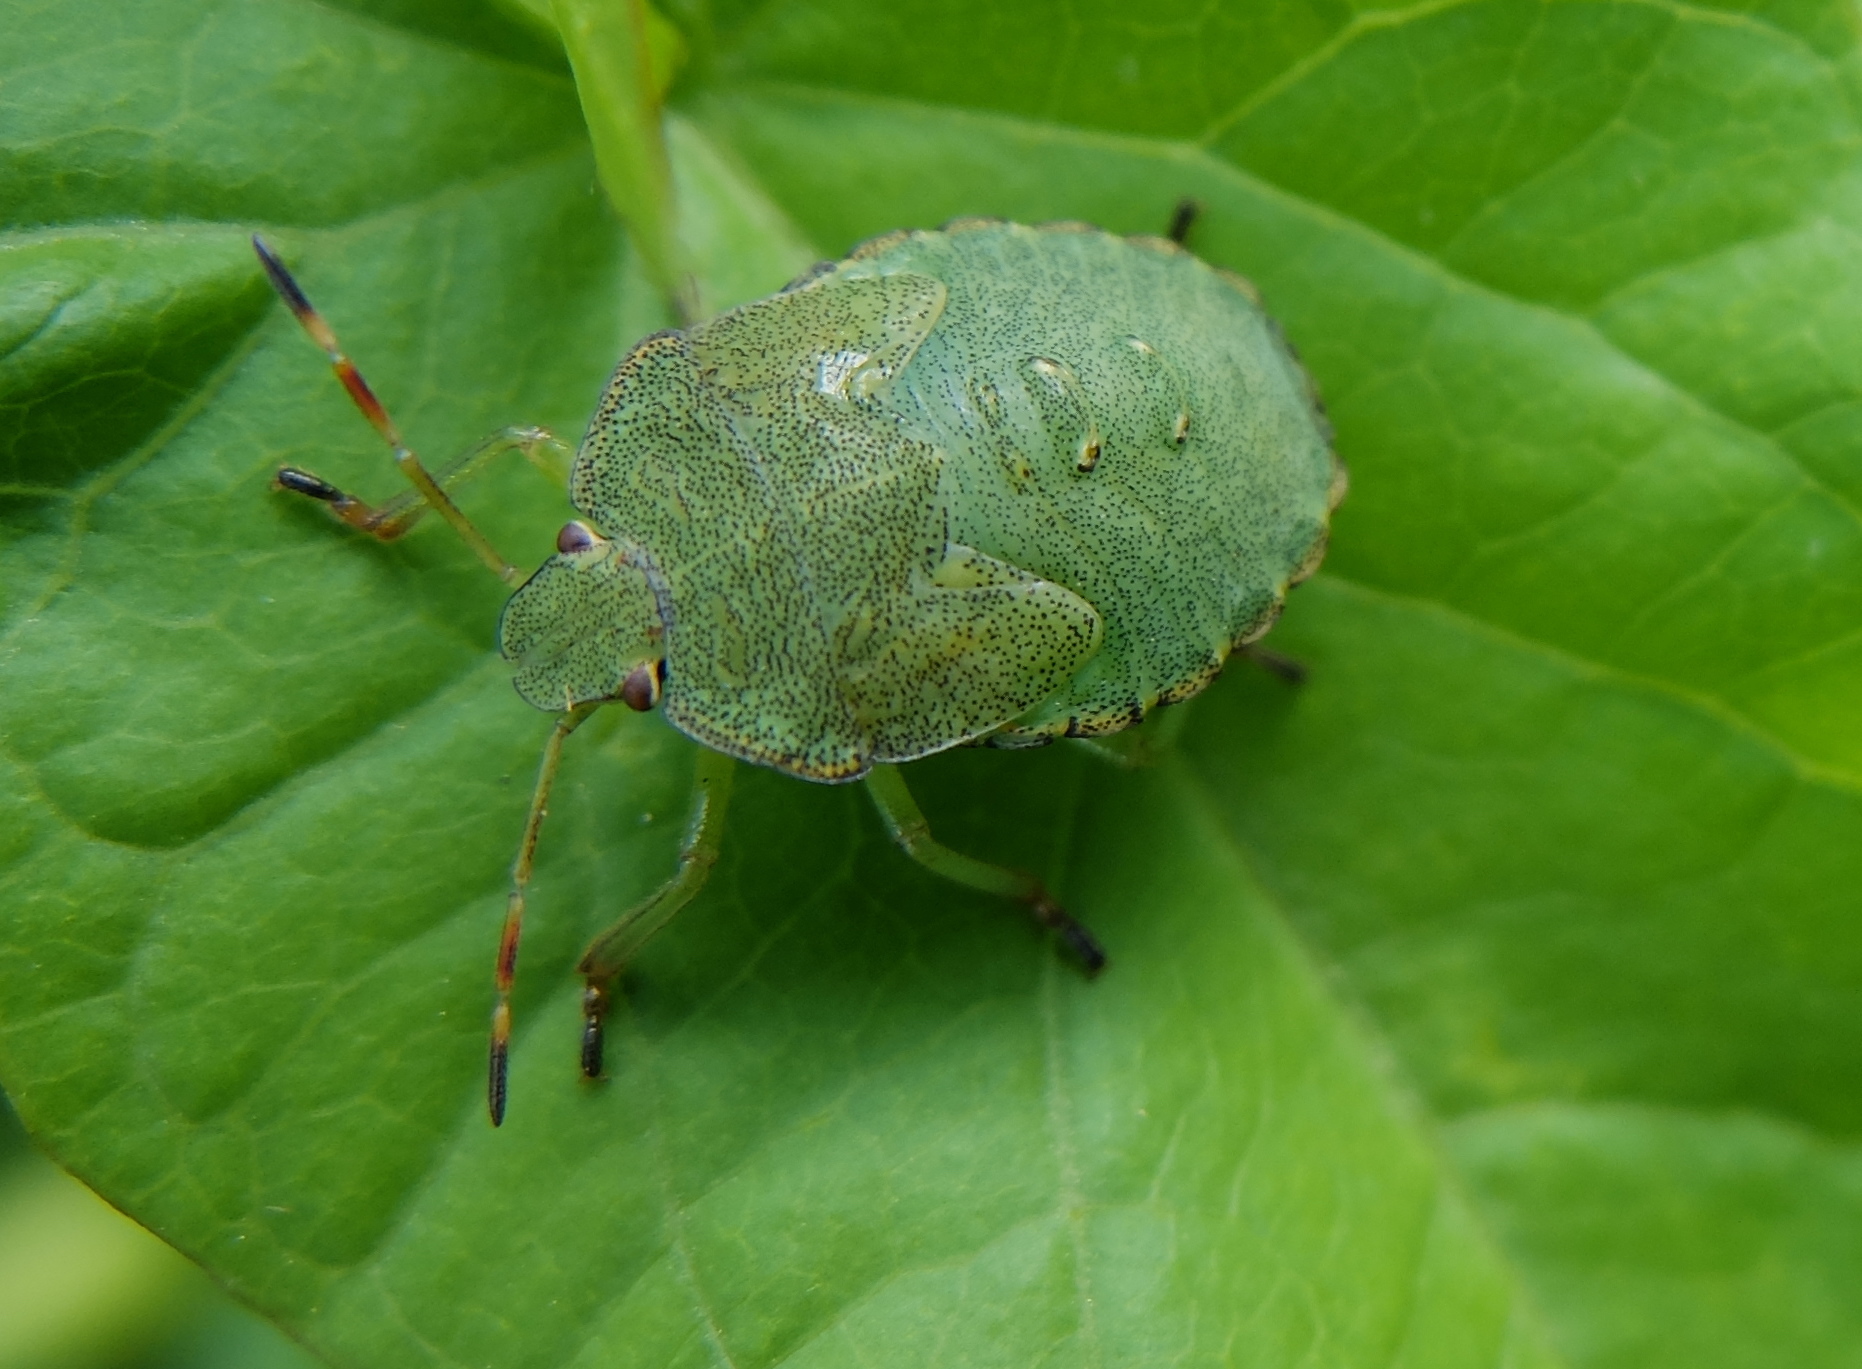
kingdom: Animalia
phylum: Arthropoda
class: Insecta
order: Hemiptera
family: Pentatomidae
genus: Palomena
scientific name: Palomena prasina
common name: Green shieldbug
